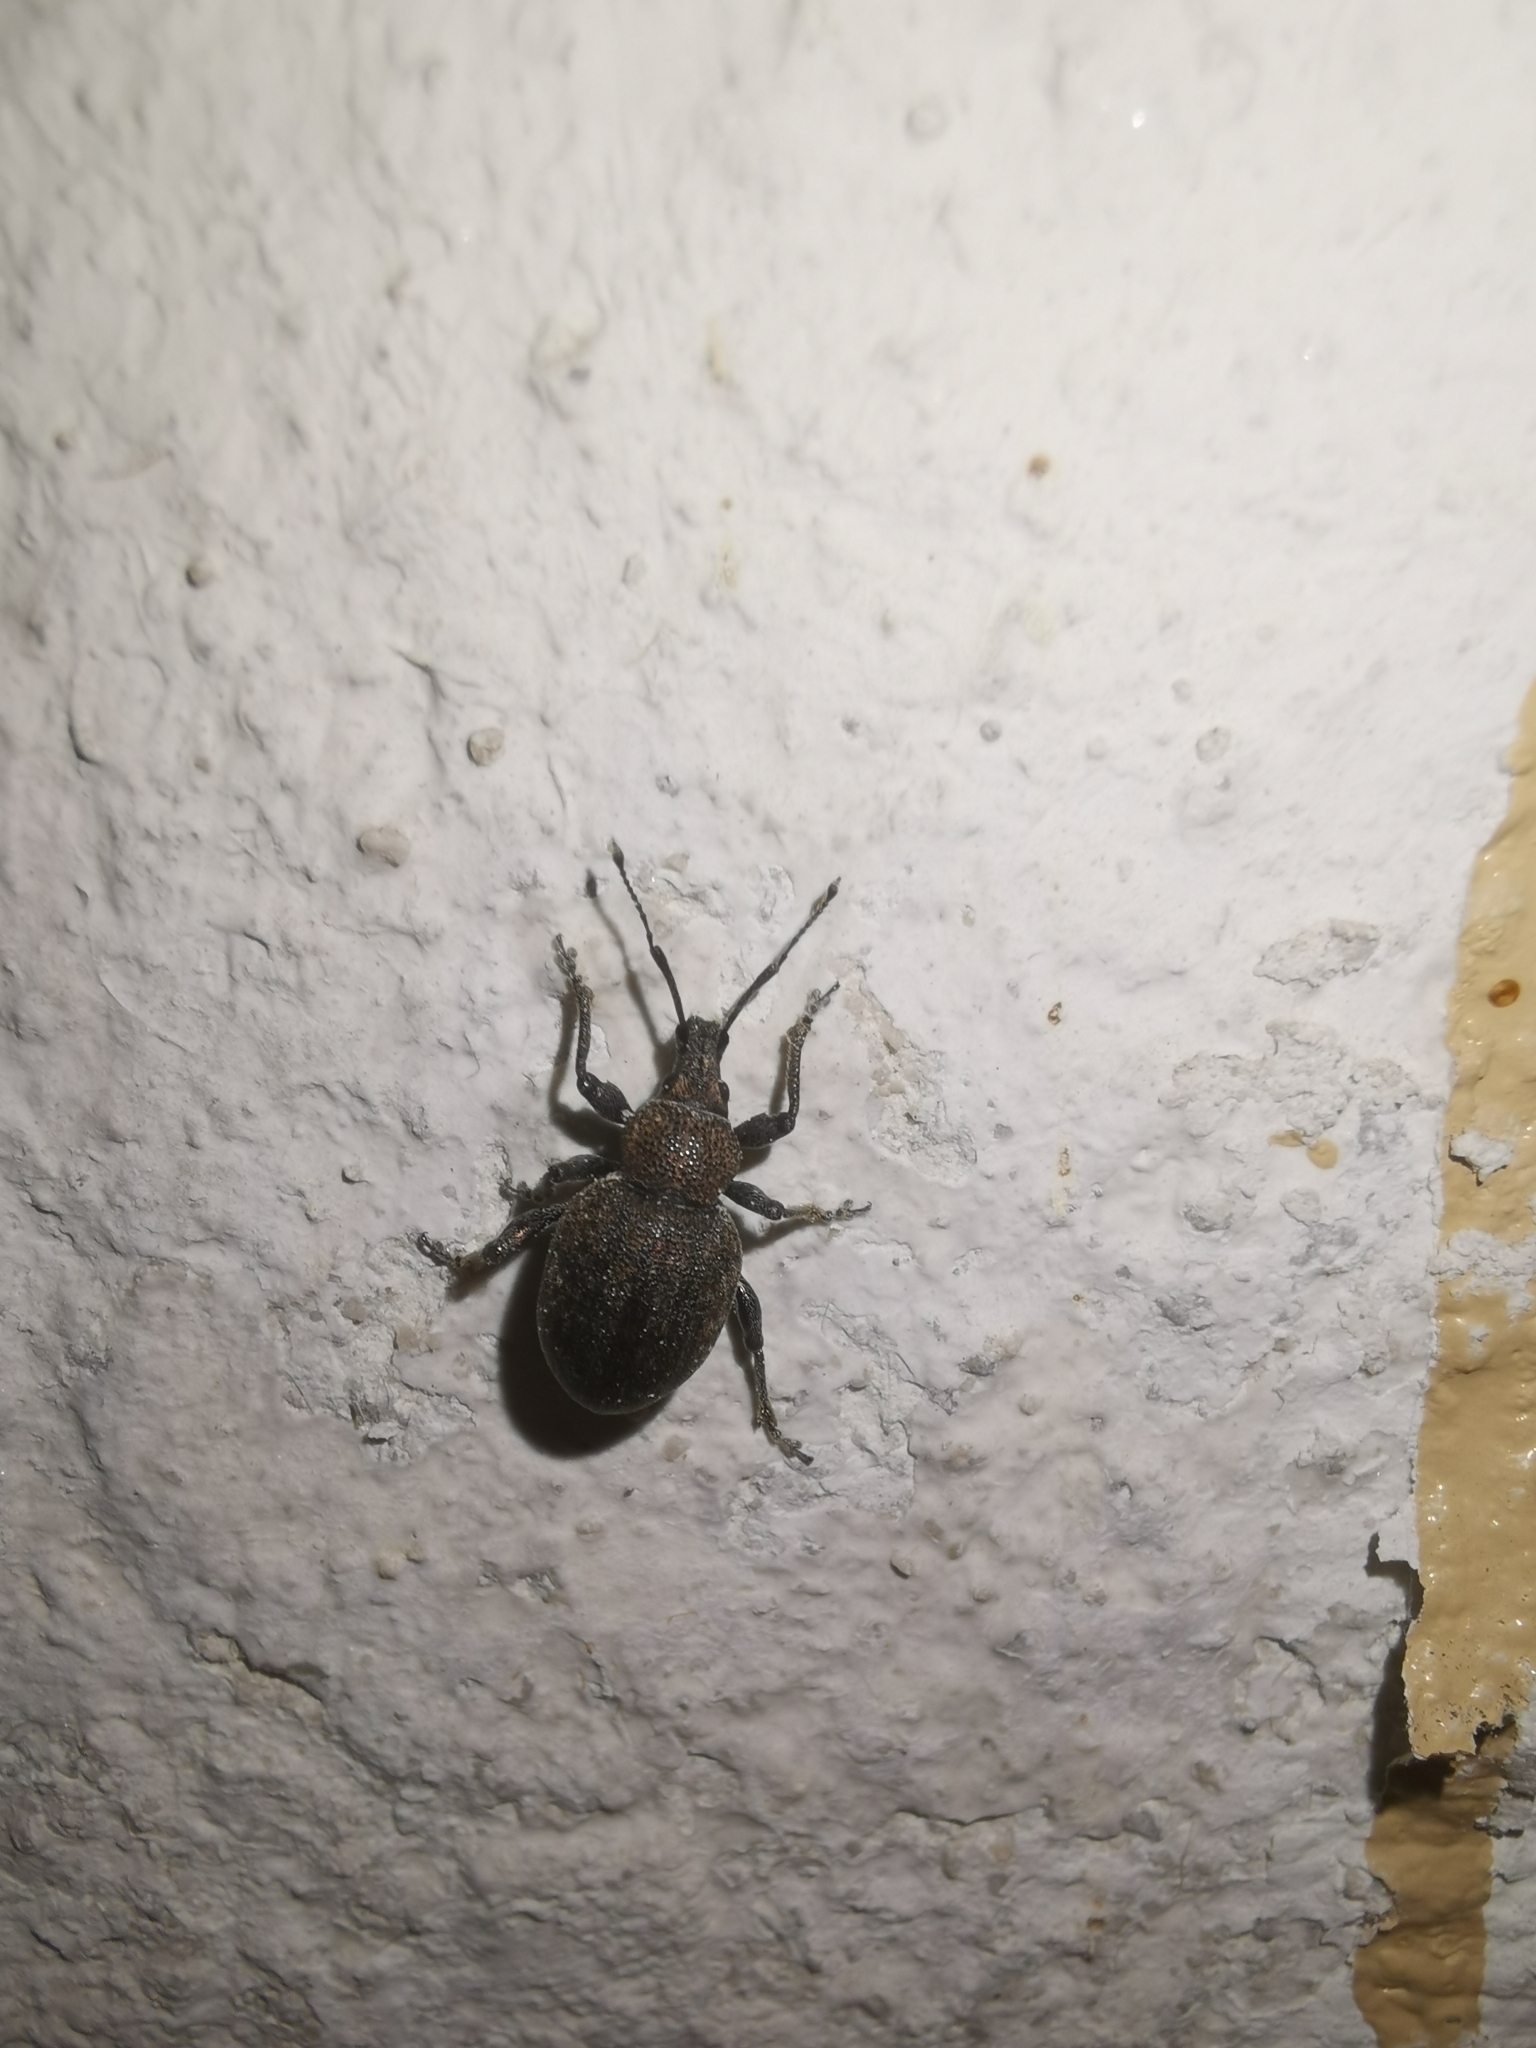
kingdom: Animalia
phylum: Arthropoda
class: Insecta
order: Coleoptera
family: Curculionidae
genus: Otiorhynchus
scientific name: Otiorhynchus ligustici
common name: Weevil
